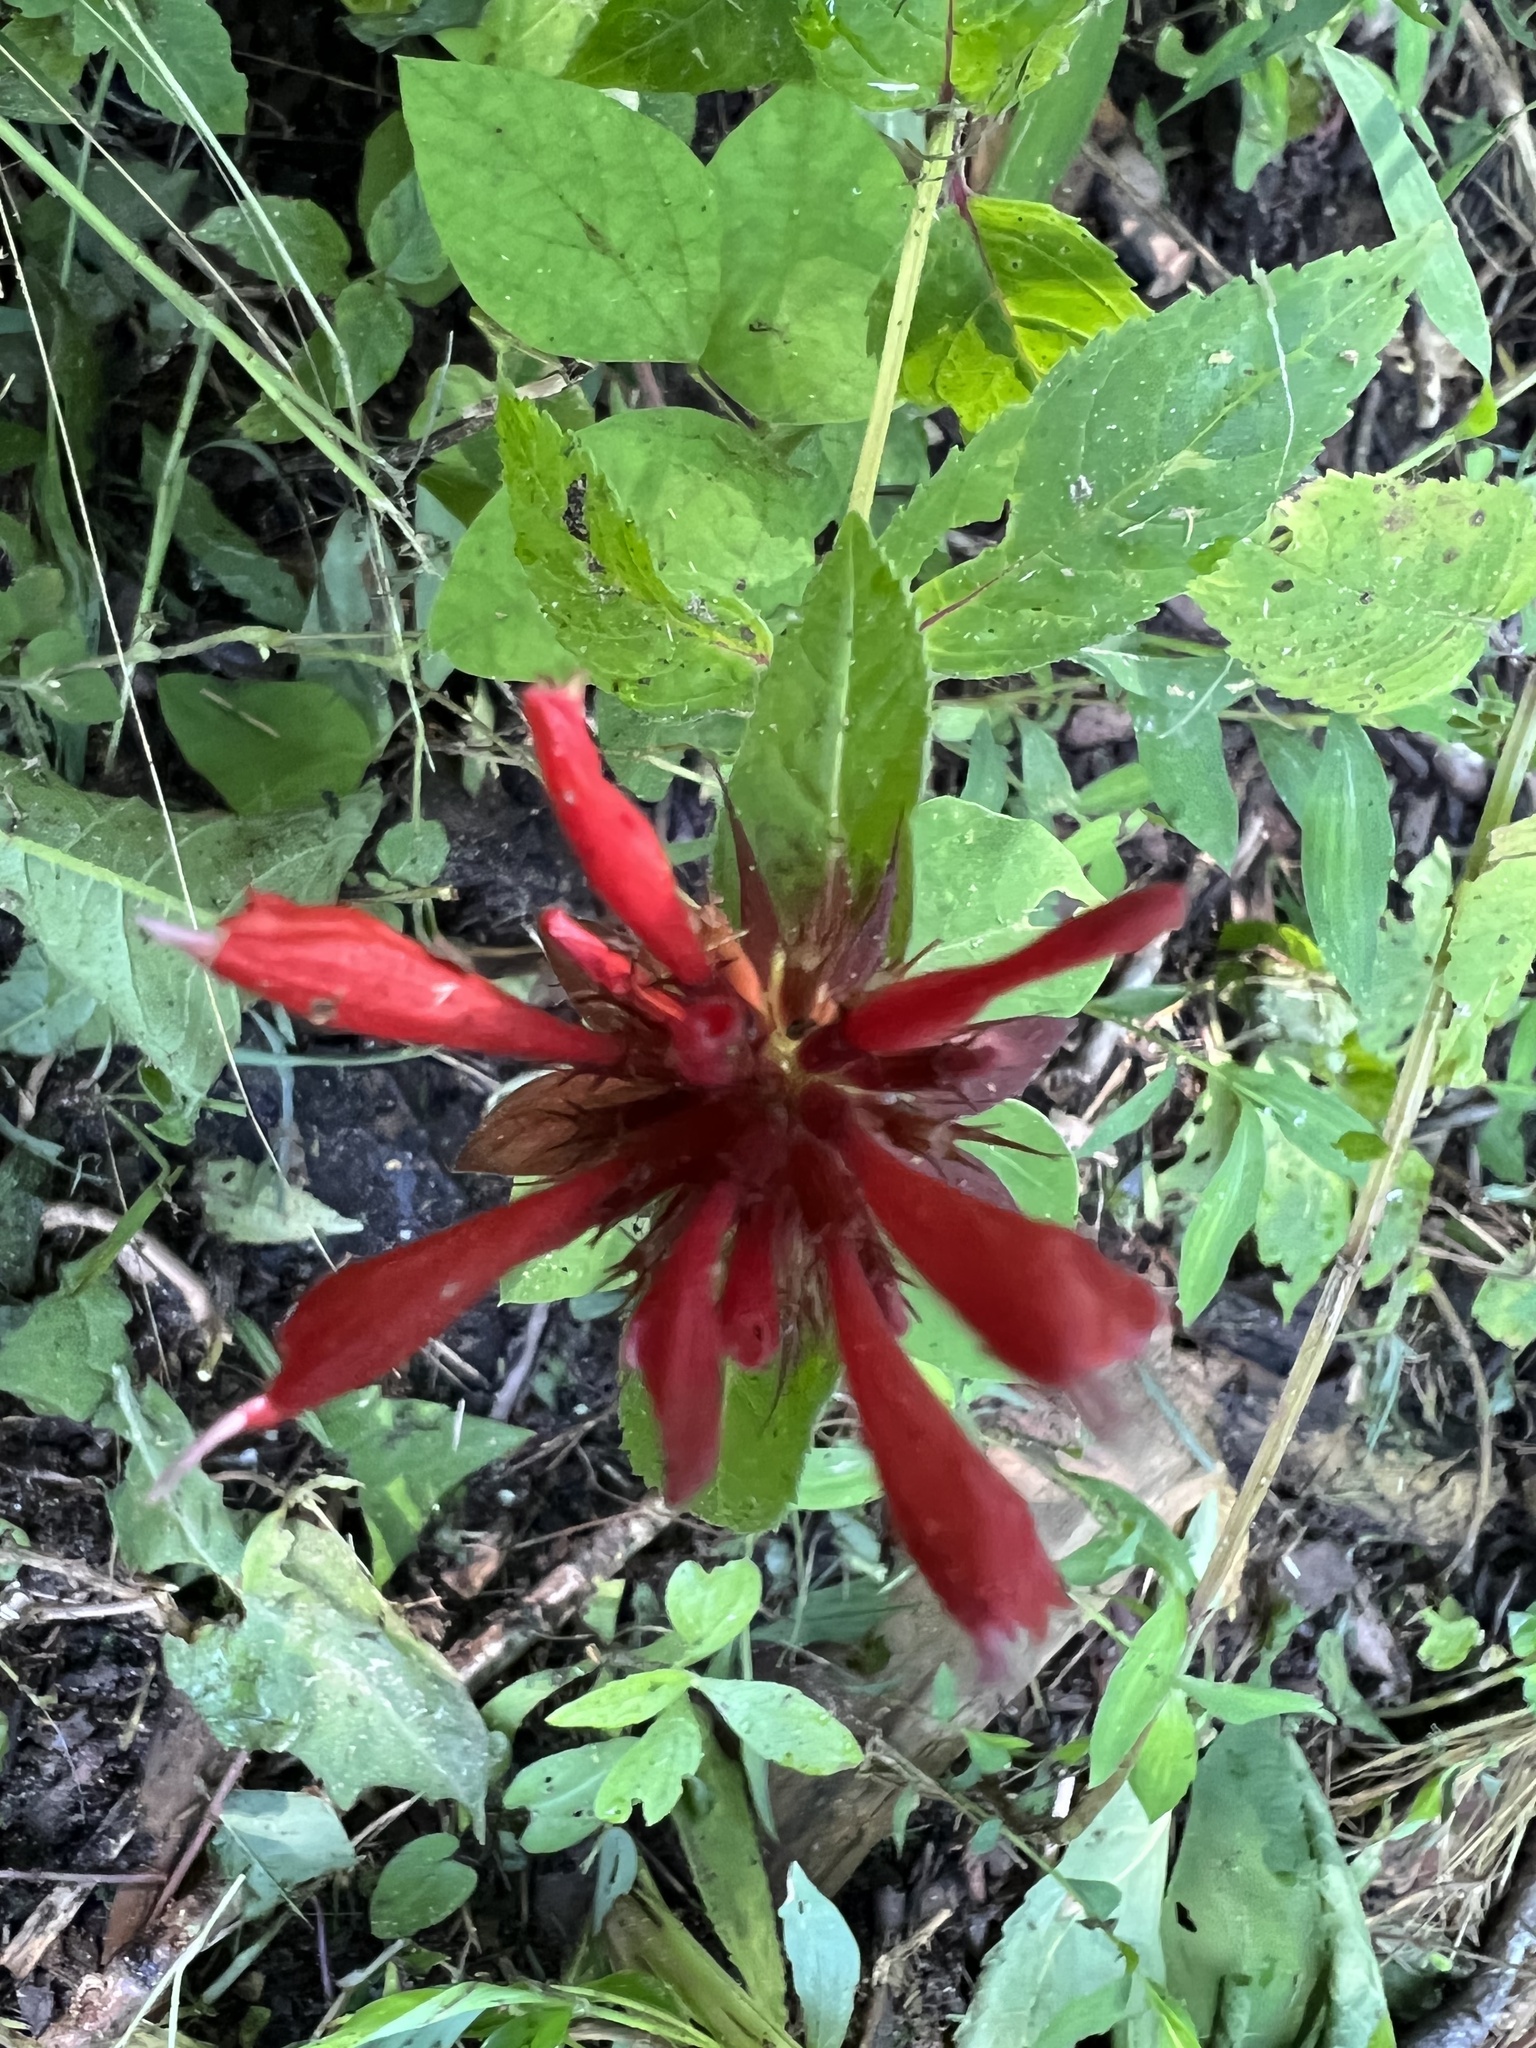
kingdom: Plantae
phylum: Tracheophyta
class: Magnoliopsida
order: Lamiales
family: Lamiaceae
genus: Monarda
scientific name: Monarda didyma
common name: Beebalm
